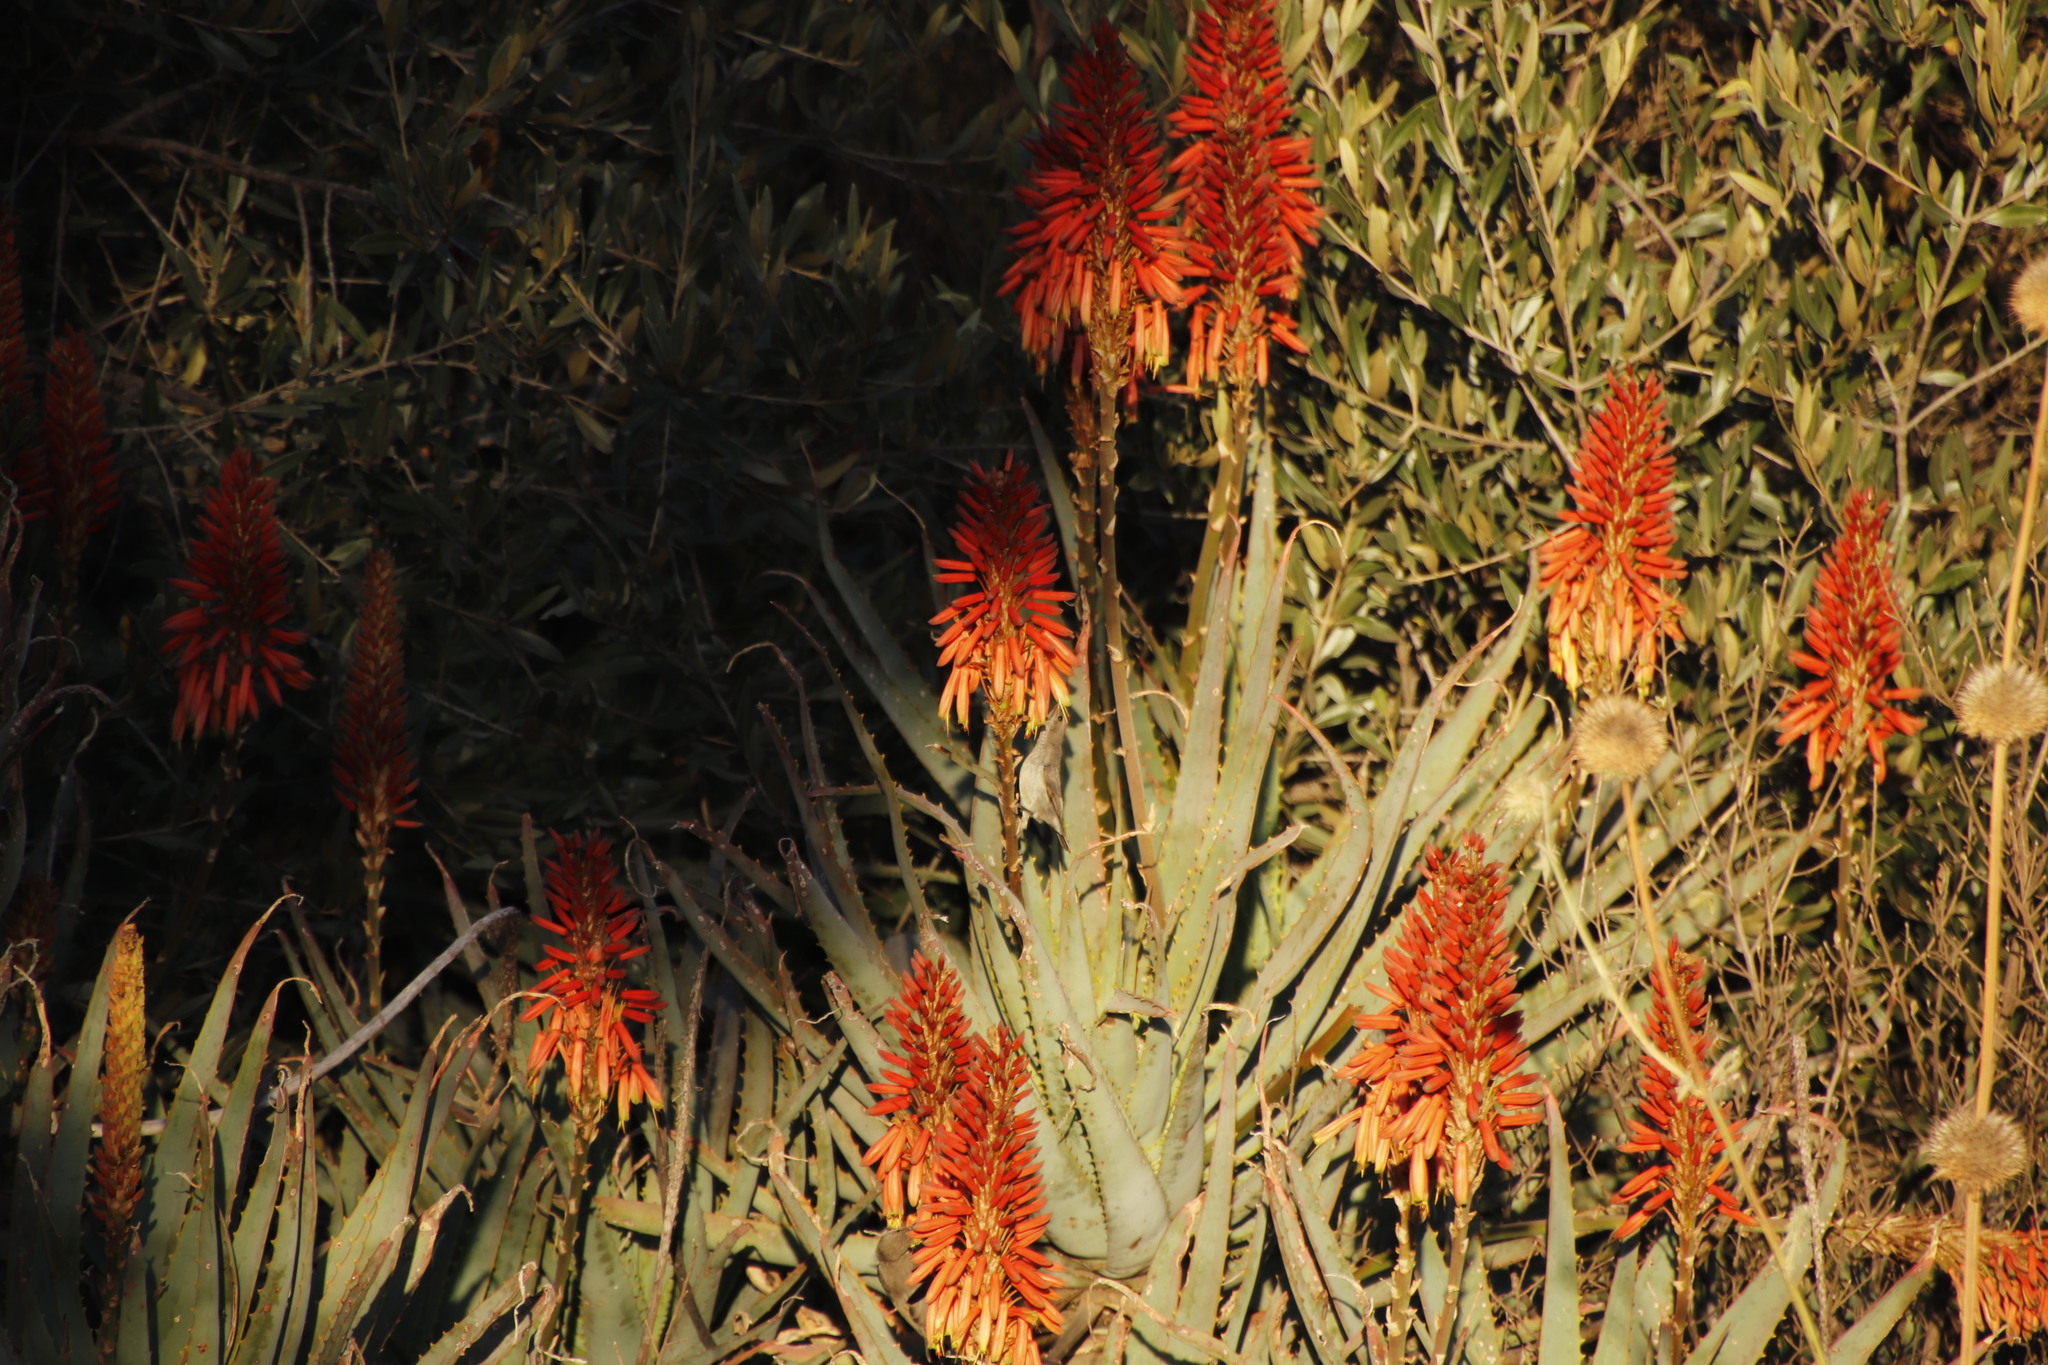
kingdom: Animalia
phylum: Chordata
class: Aves
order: Passeriformes
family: Ploceidae
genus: Ploceus
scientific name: Ploceus capensis
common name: Cape weaver
